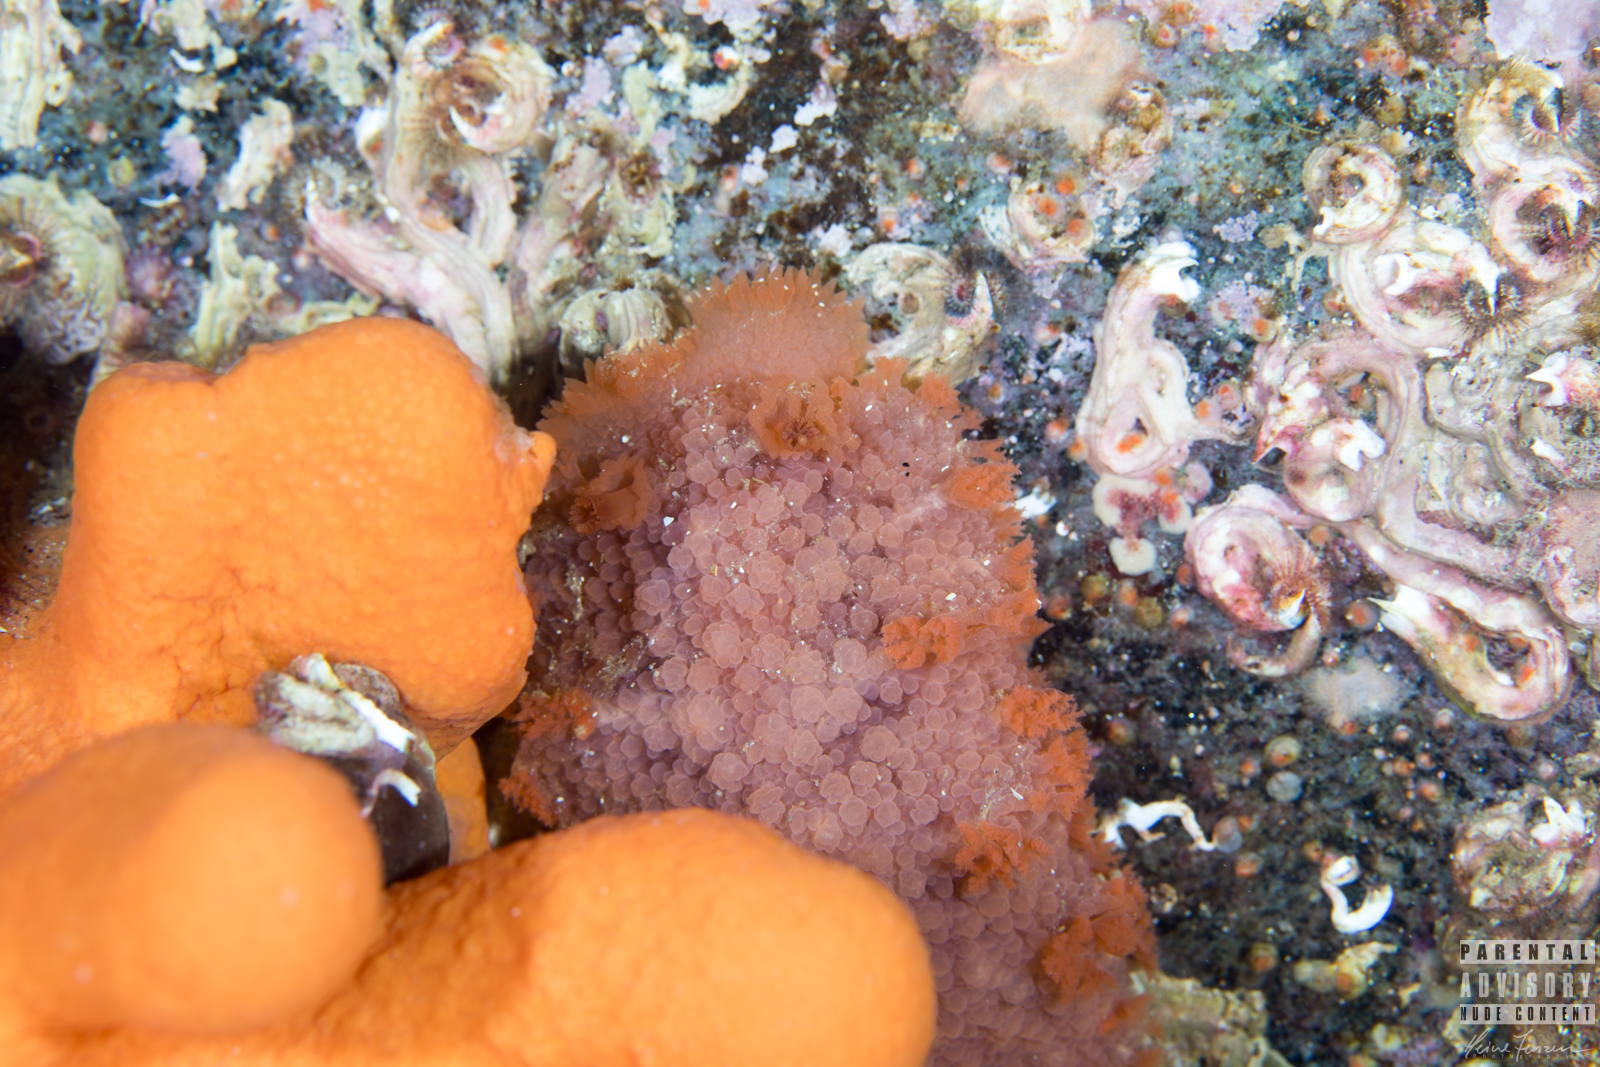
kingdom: Animalia
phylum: Mollusca
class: Gastropoda
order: Nudibranchia
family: Tritoniidae
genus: Tritonia
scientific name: Tritonia hombergii
